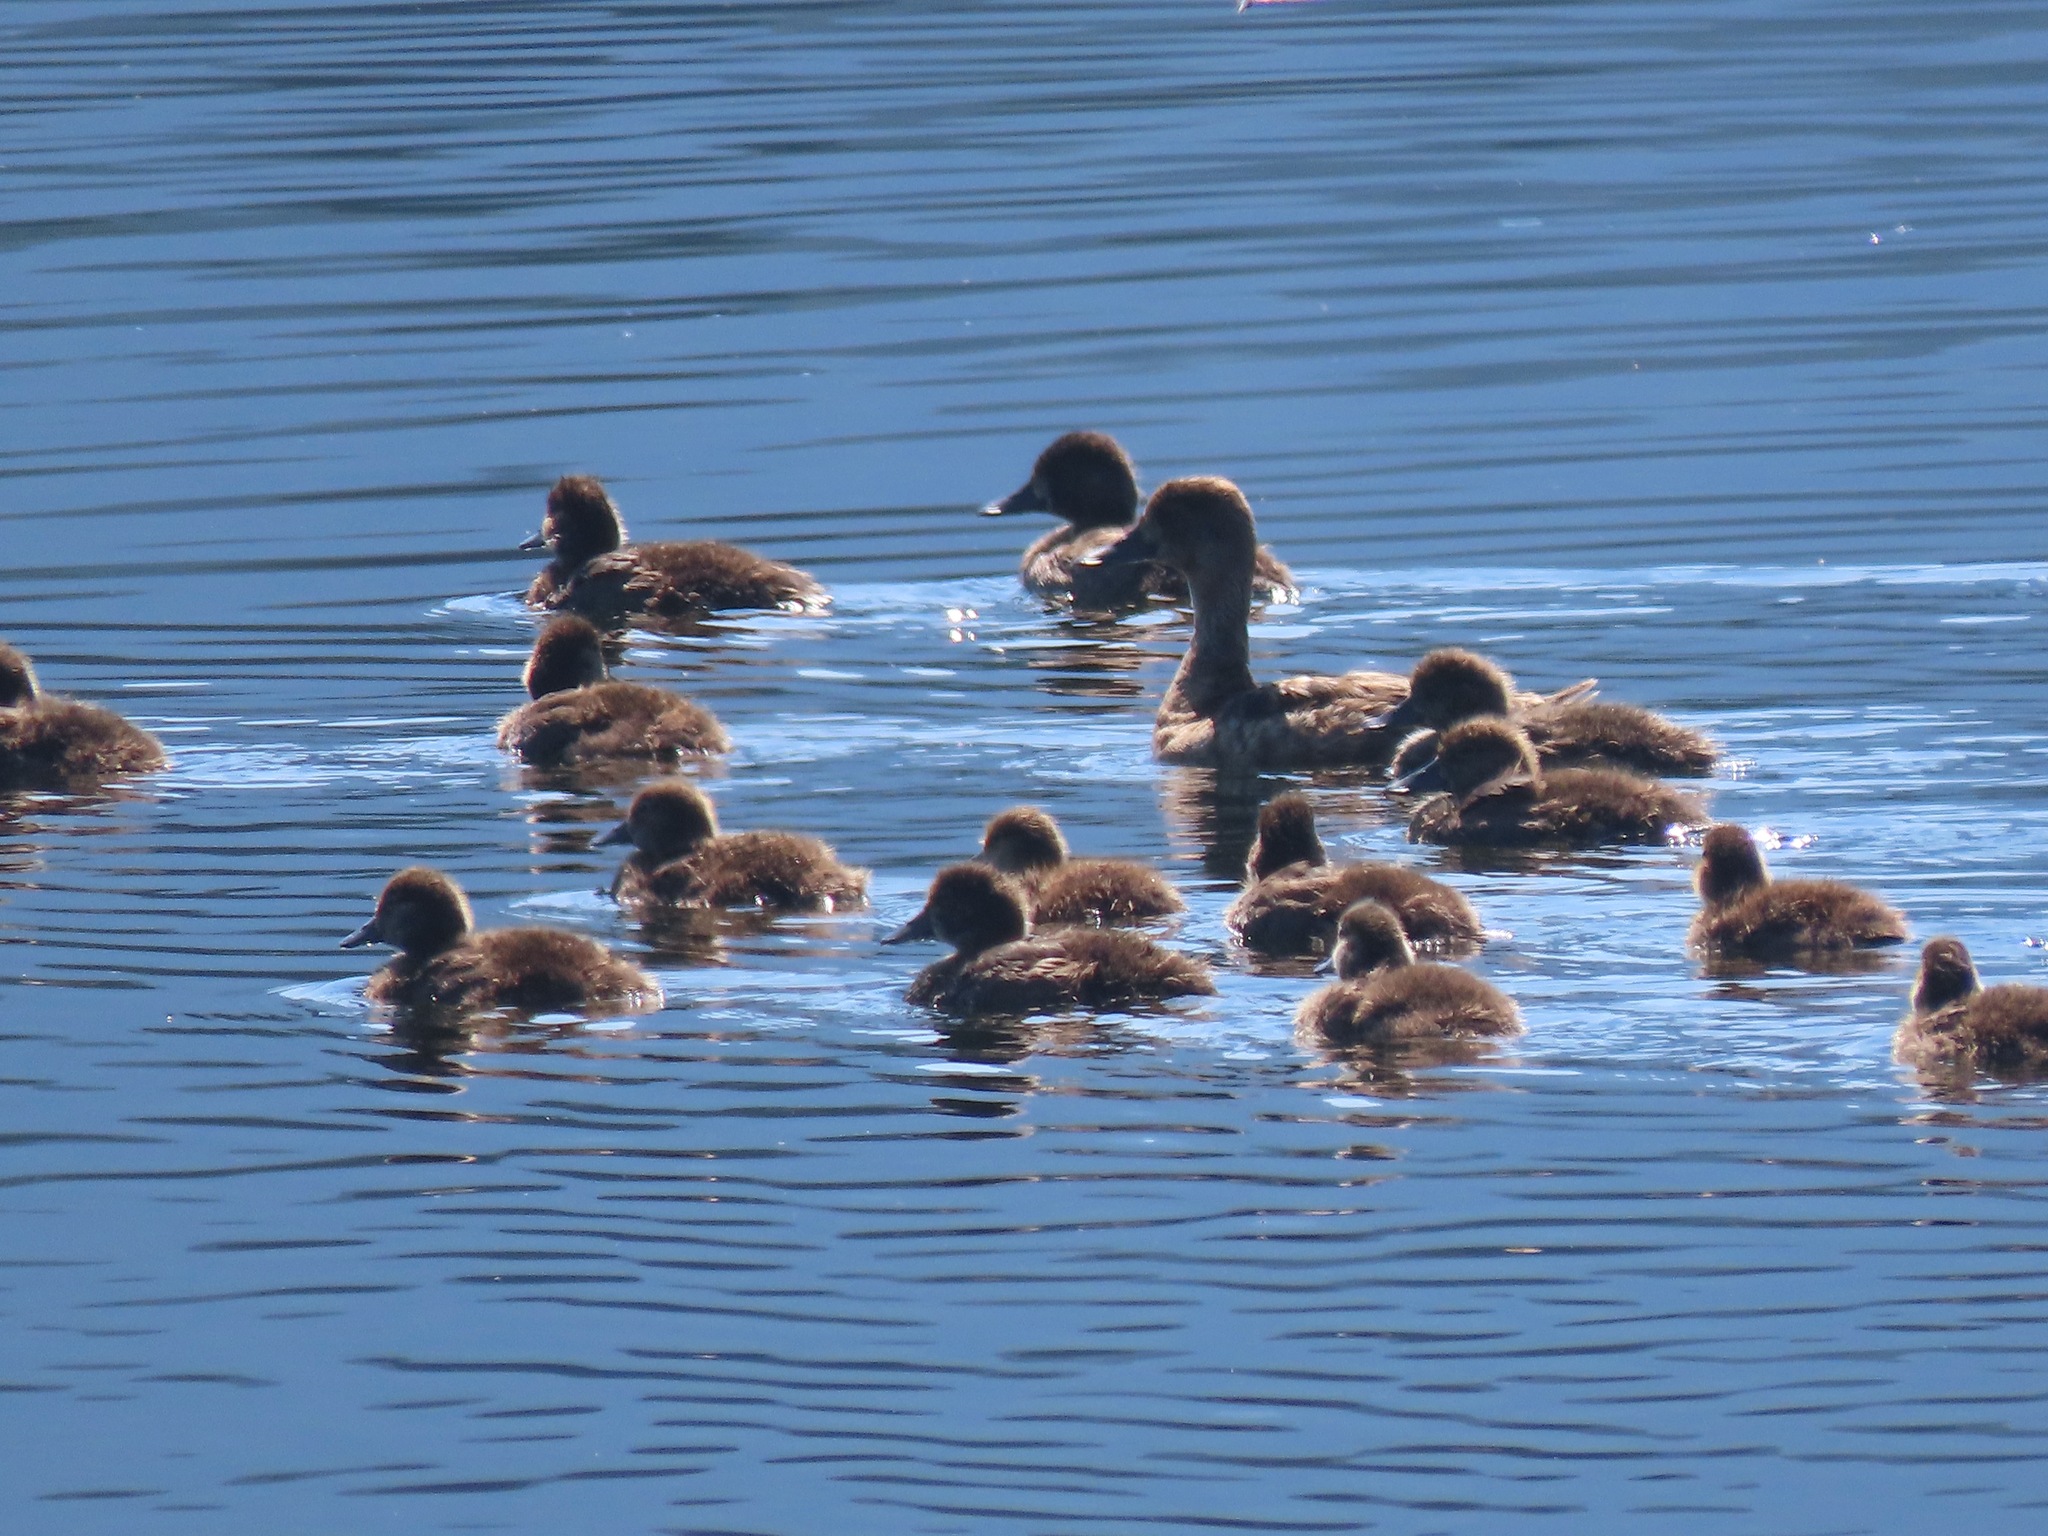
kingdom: Animalia
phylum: Chordata
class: Aves
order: Anseriformes
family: Anatidae
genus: Aythya
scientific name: Aythya affinis
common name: Lesser scaup
